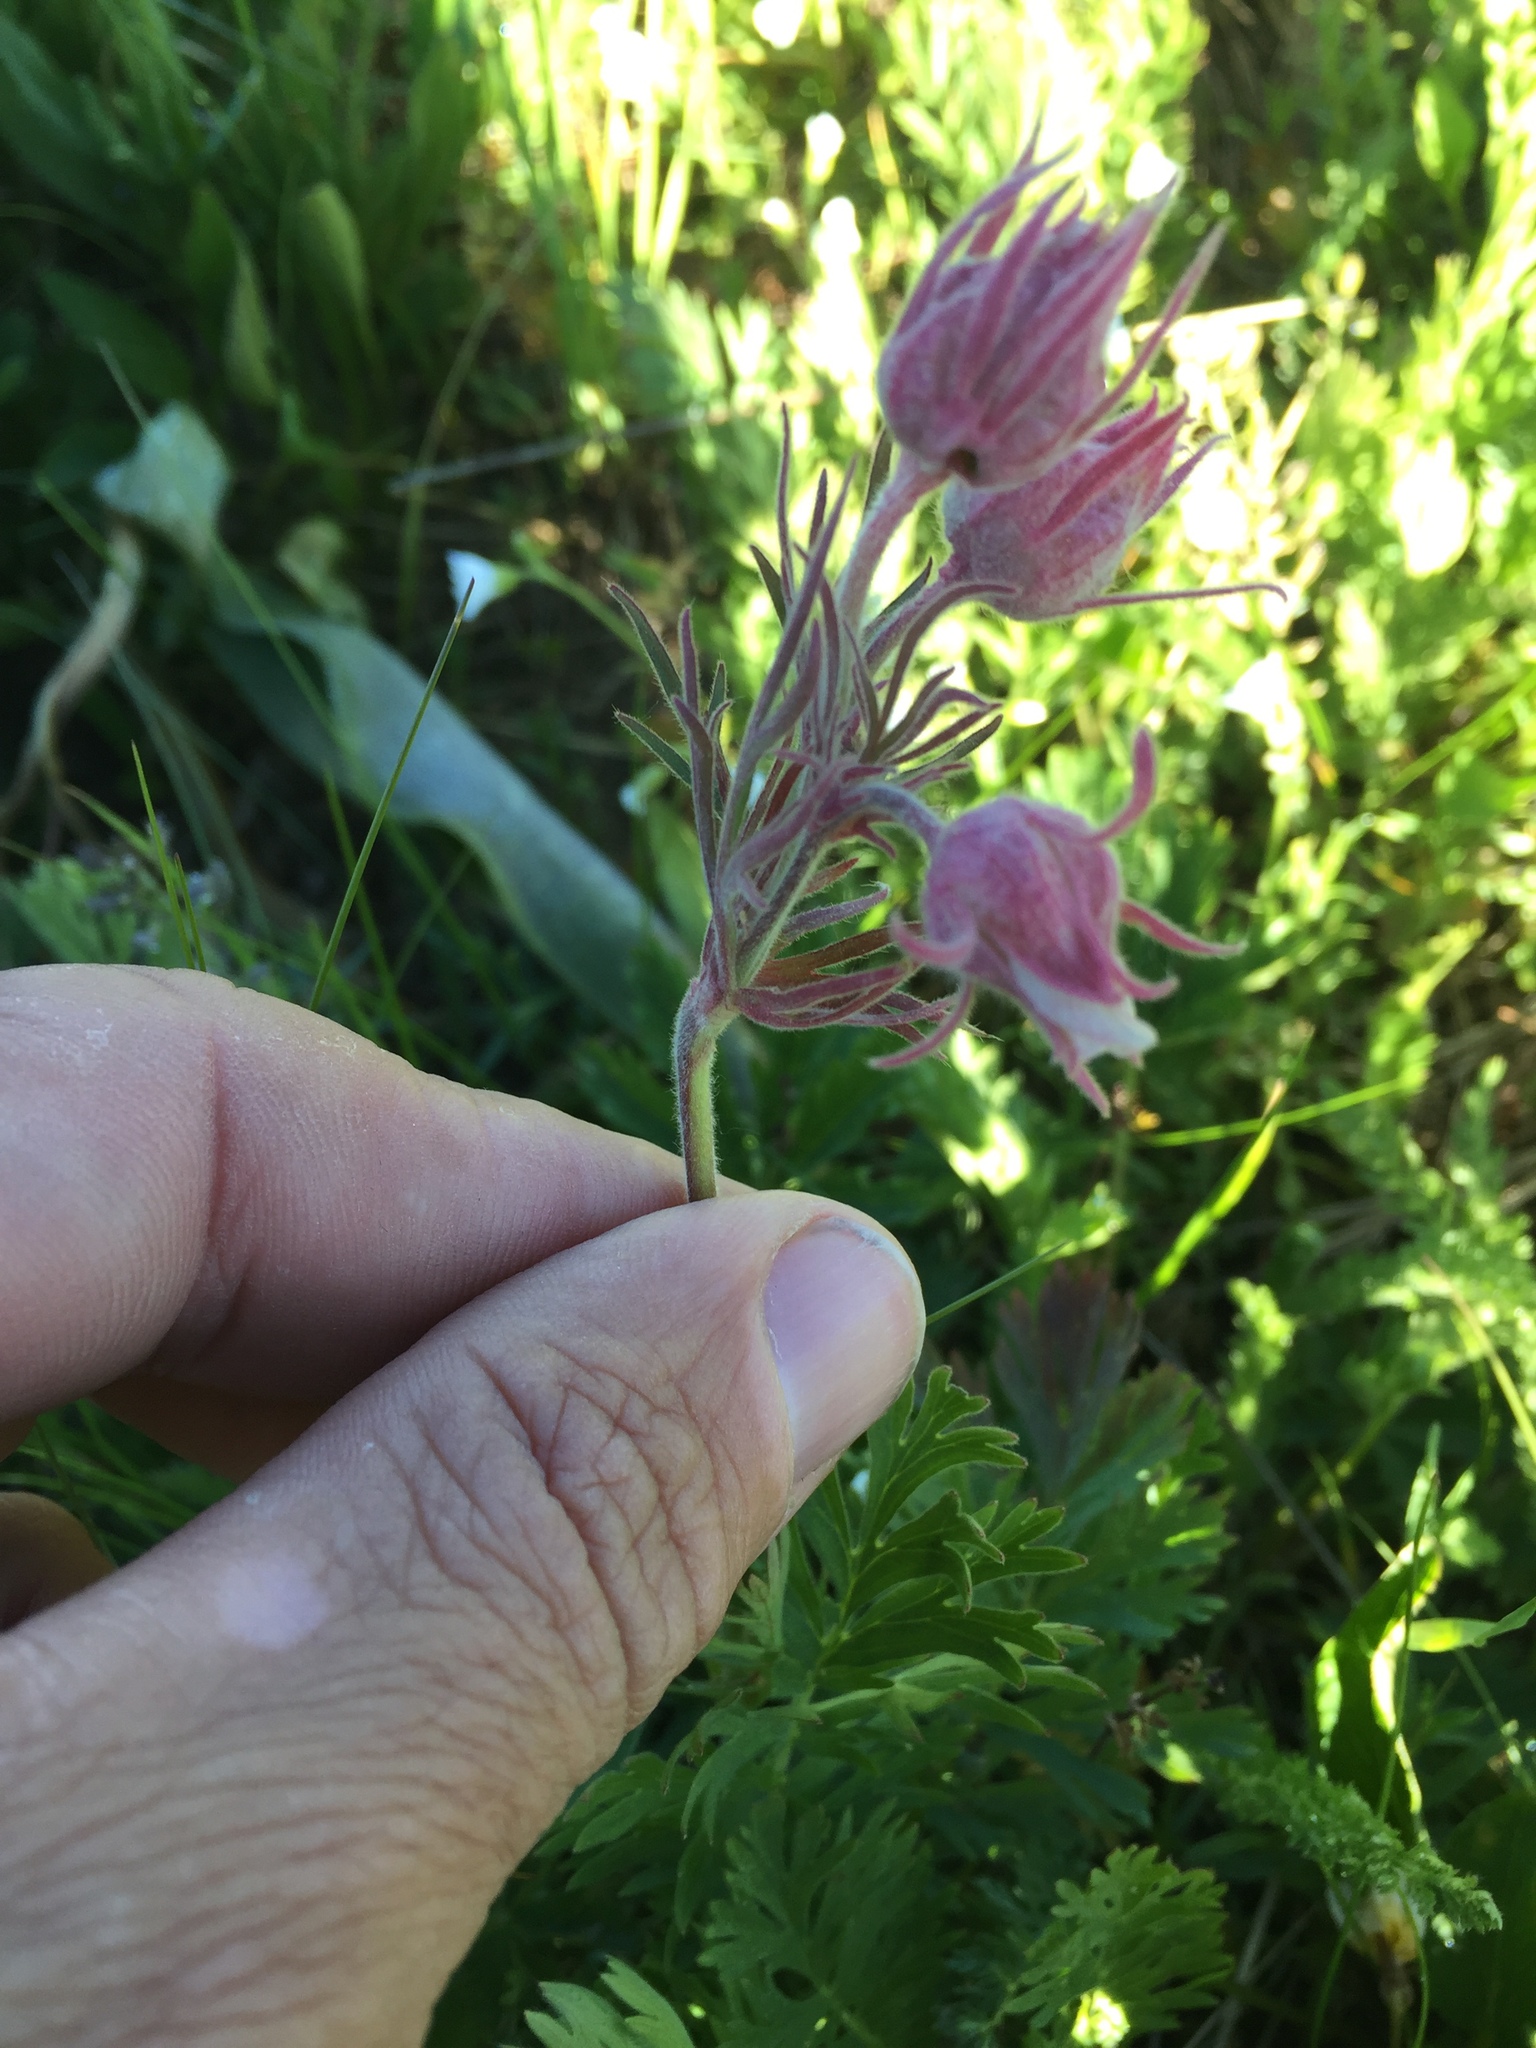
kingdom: Plantae
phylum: Tracheophyta
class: Magnoliopsida
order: Rosales
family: Rosaceae
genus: Geum
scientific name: Geum triflorum
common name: Old man's whiskers
